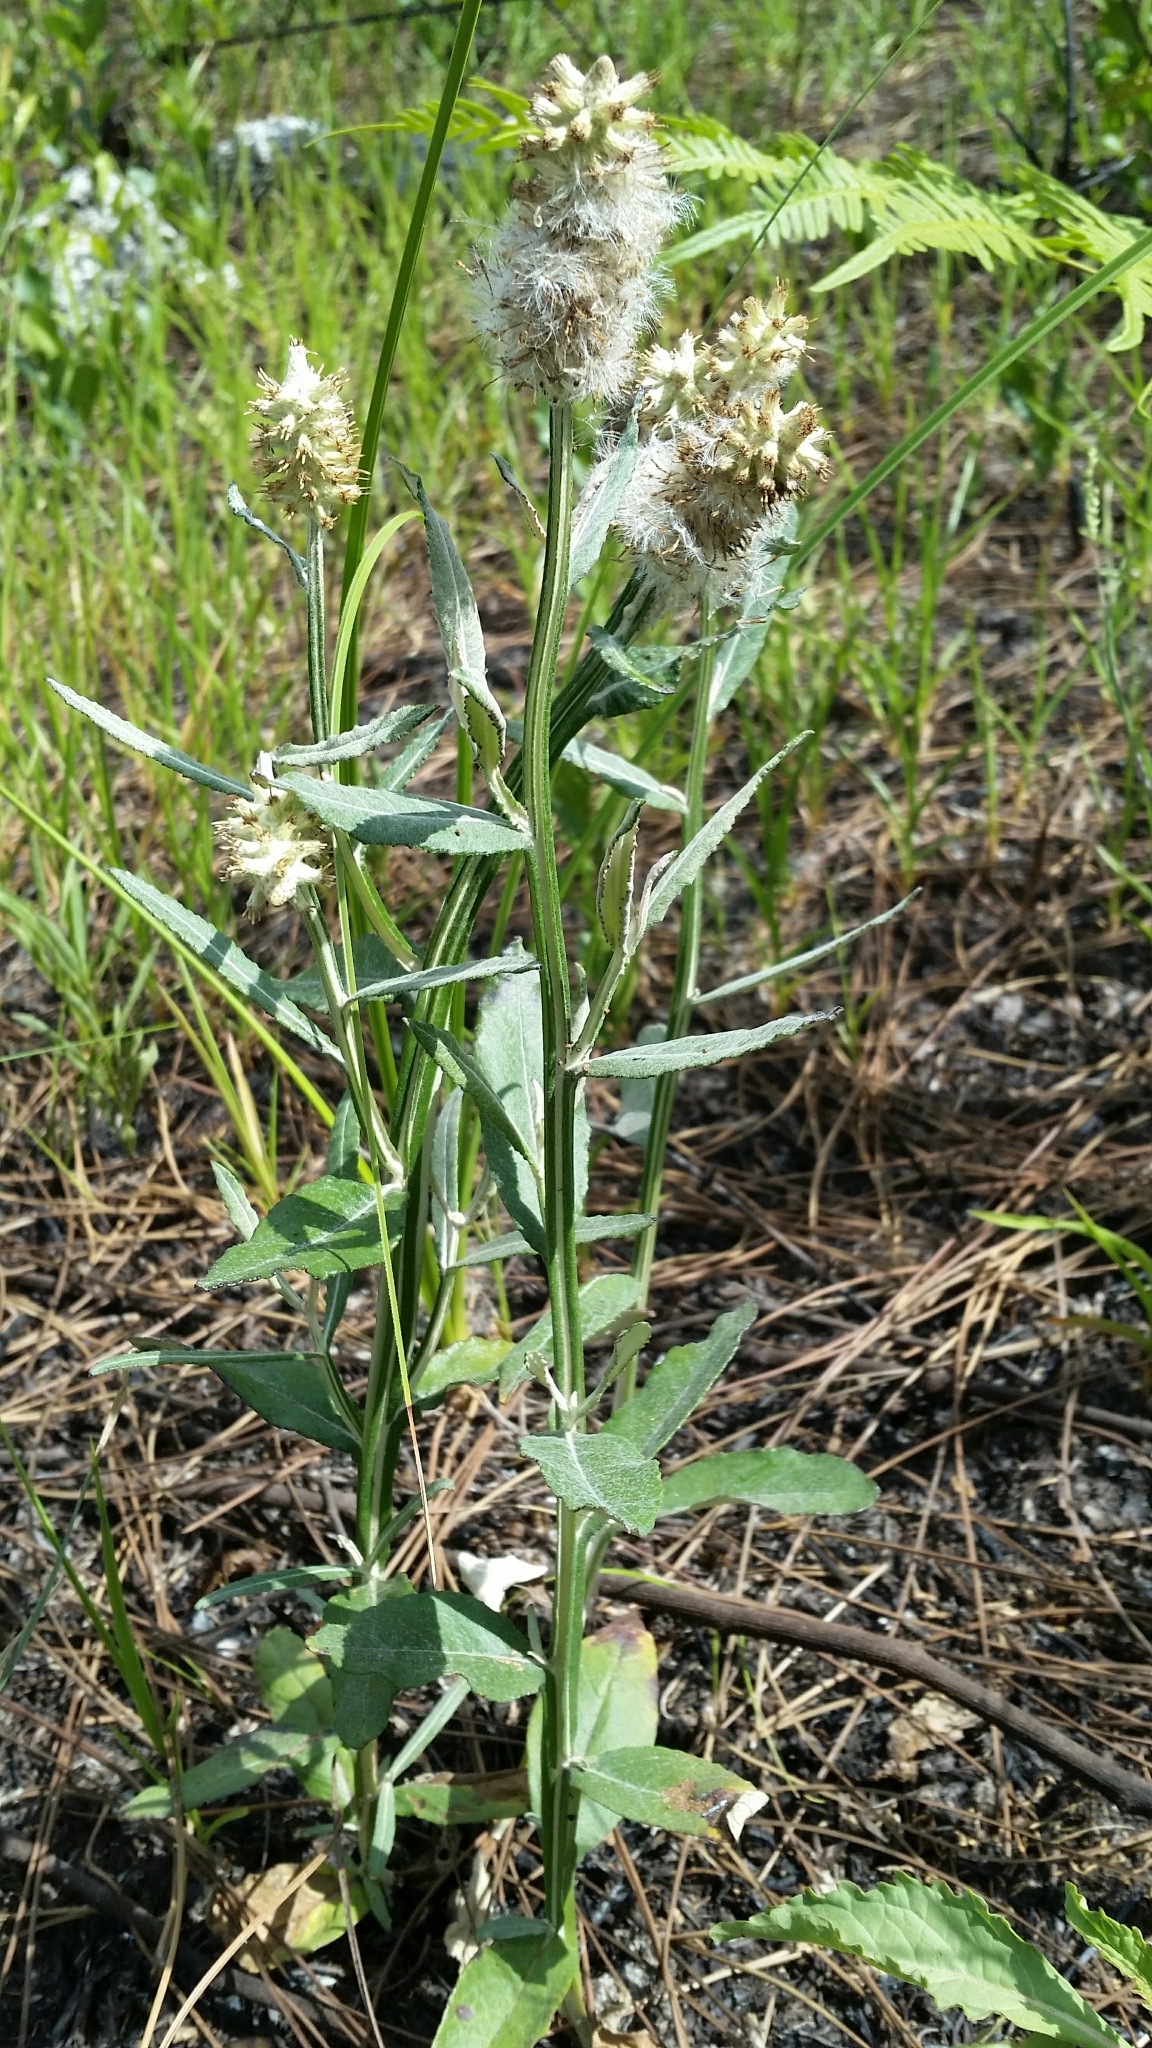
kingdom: Plantae
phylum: Tracheophyta
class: Magnoliopsida
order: Asterales
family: Asteraceae
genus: Pterocaulon
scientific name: Pterocaulon pycnostachyum
